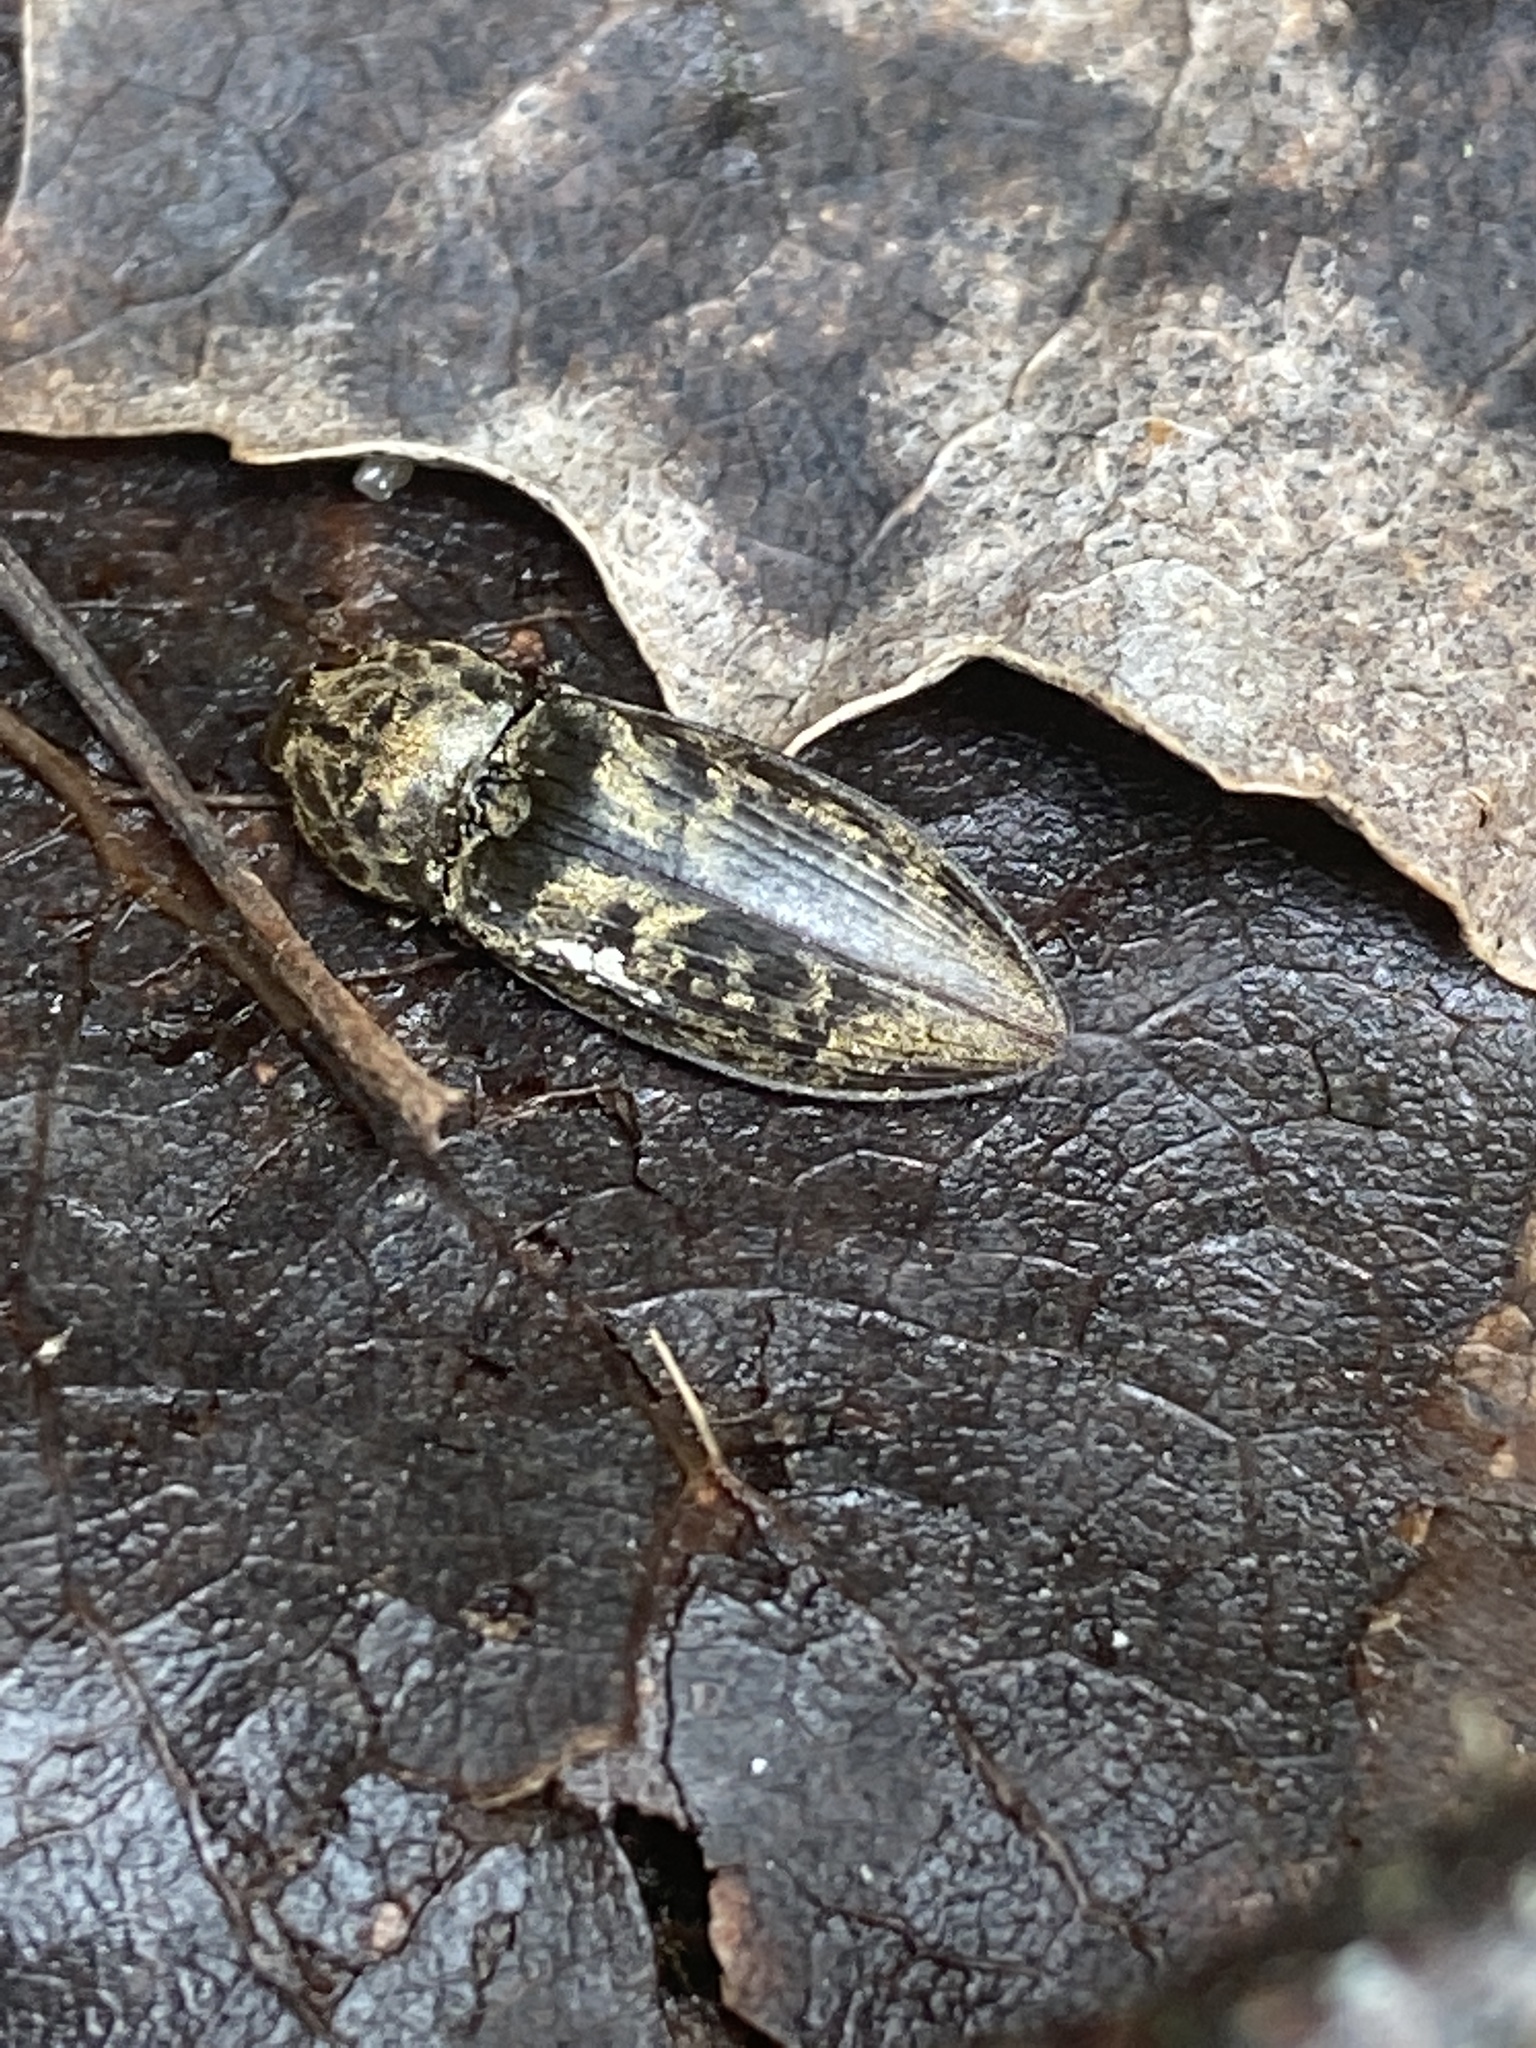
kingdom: Animalia
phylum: Arthropoda
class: Insecta
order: Coleoptera
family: Elateridae
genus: Prosternon
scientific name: Prosternon tessellatum
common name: Chequered click beetle
